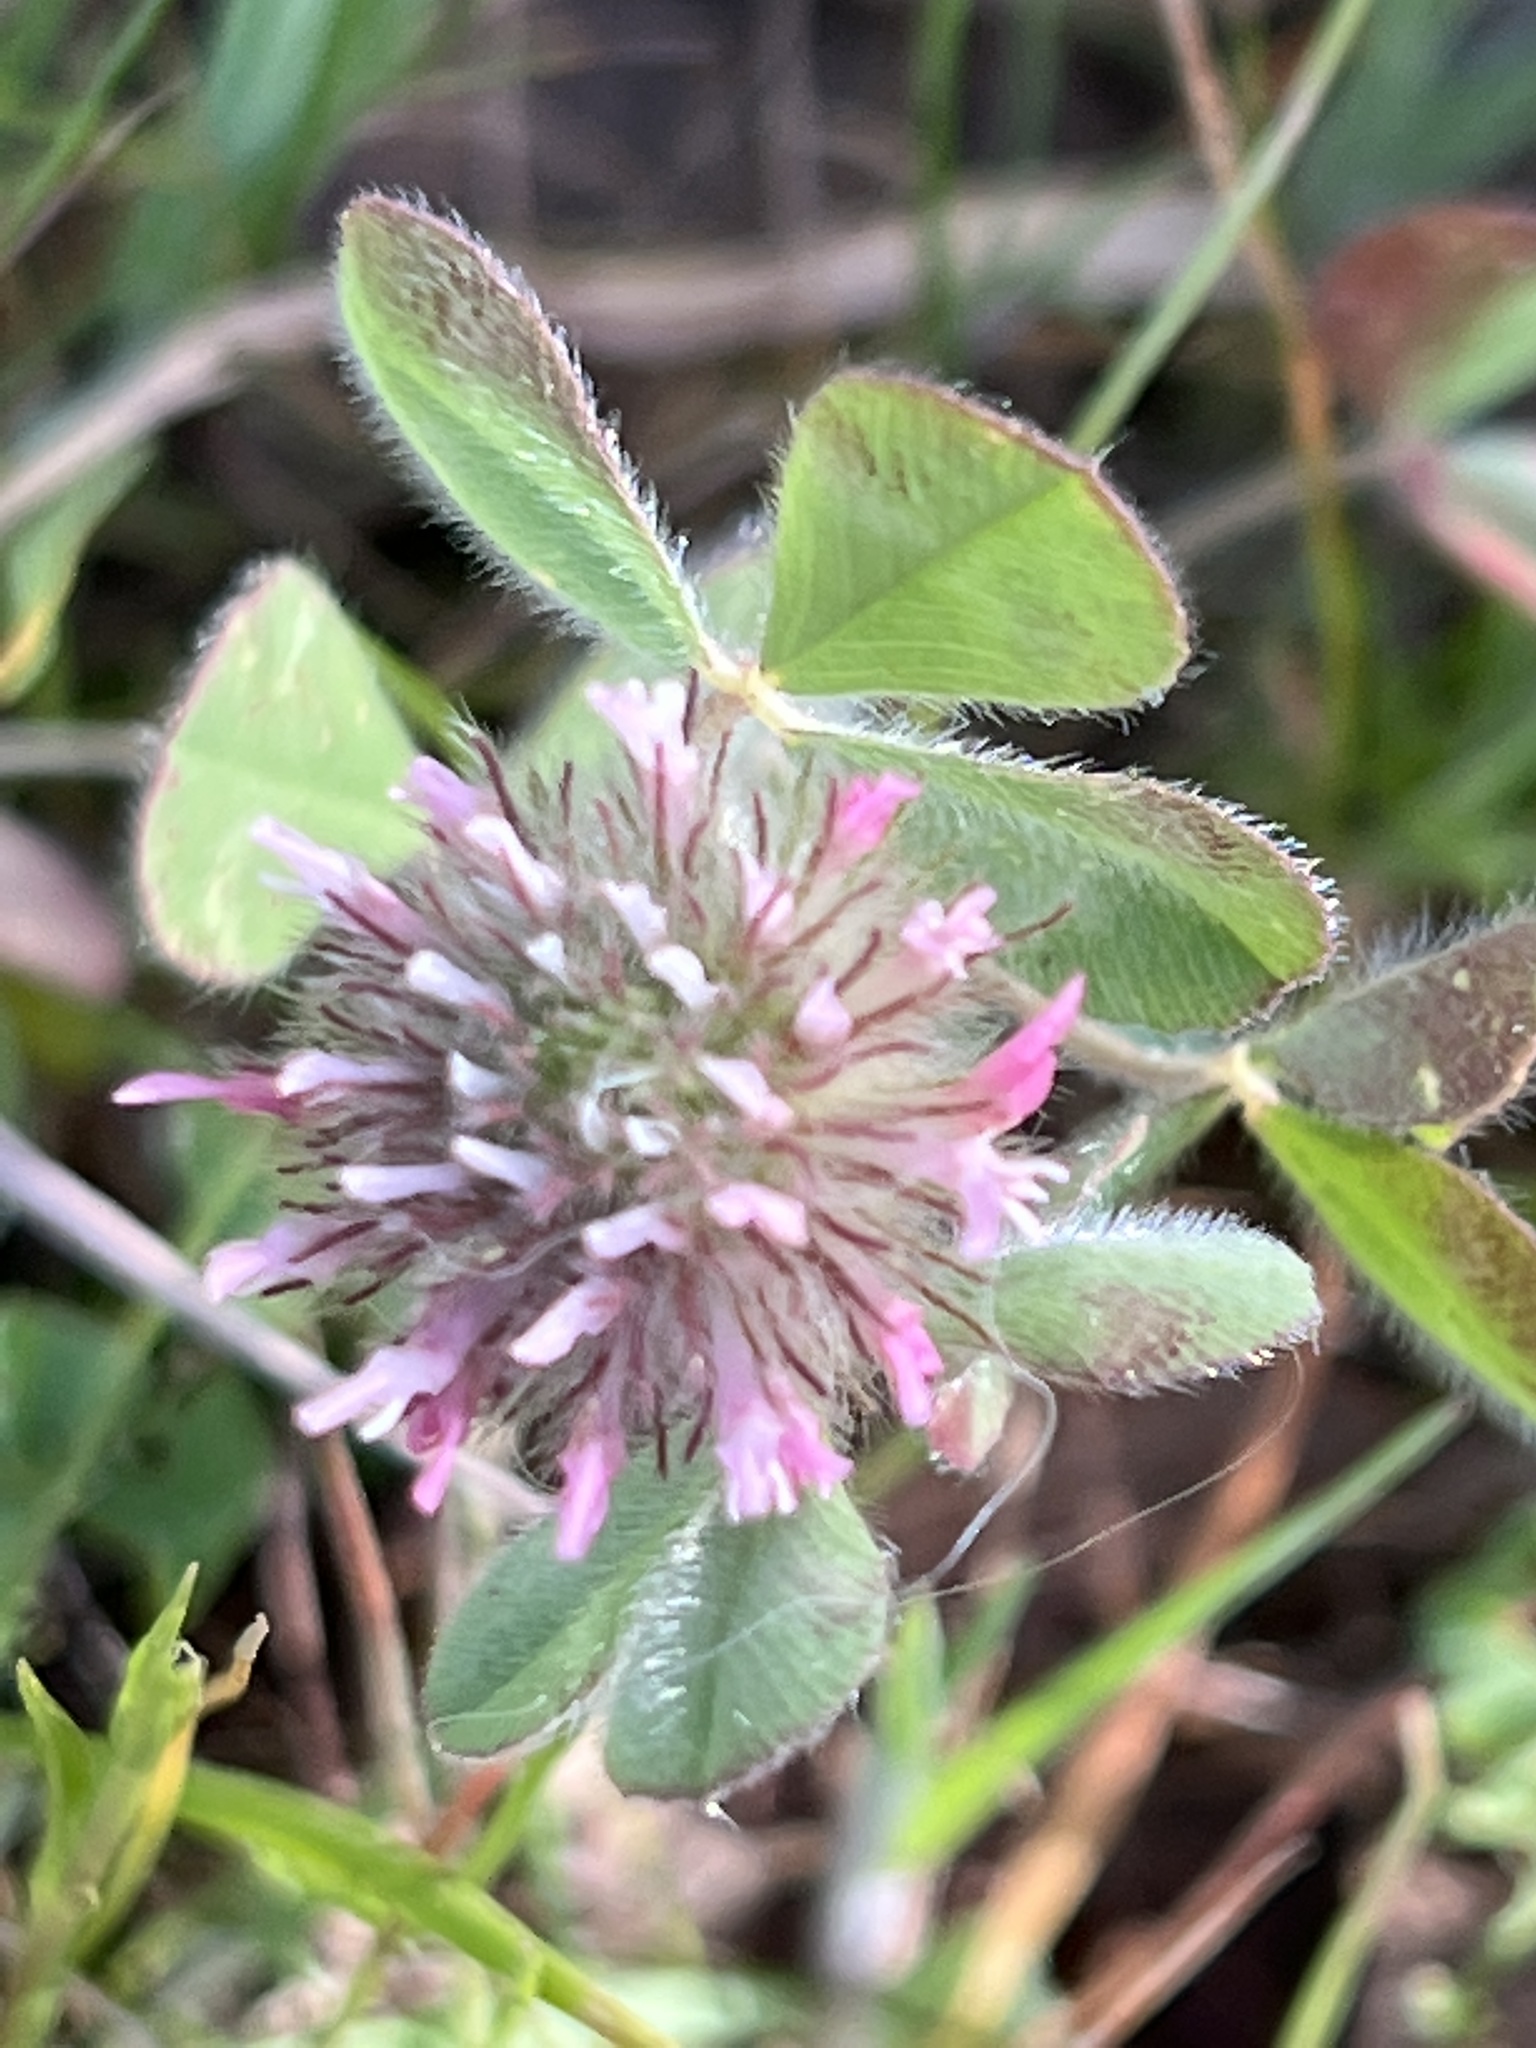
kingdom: Plantae
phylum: Tracheophyta
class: Magnoliopsida
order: Fabales
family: Fabaceae
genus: Trifolium
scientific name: Trifolium hirtum
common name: Rose clover
